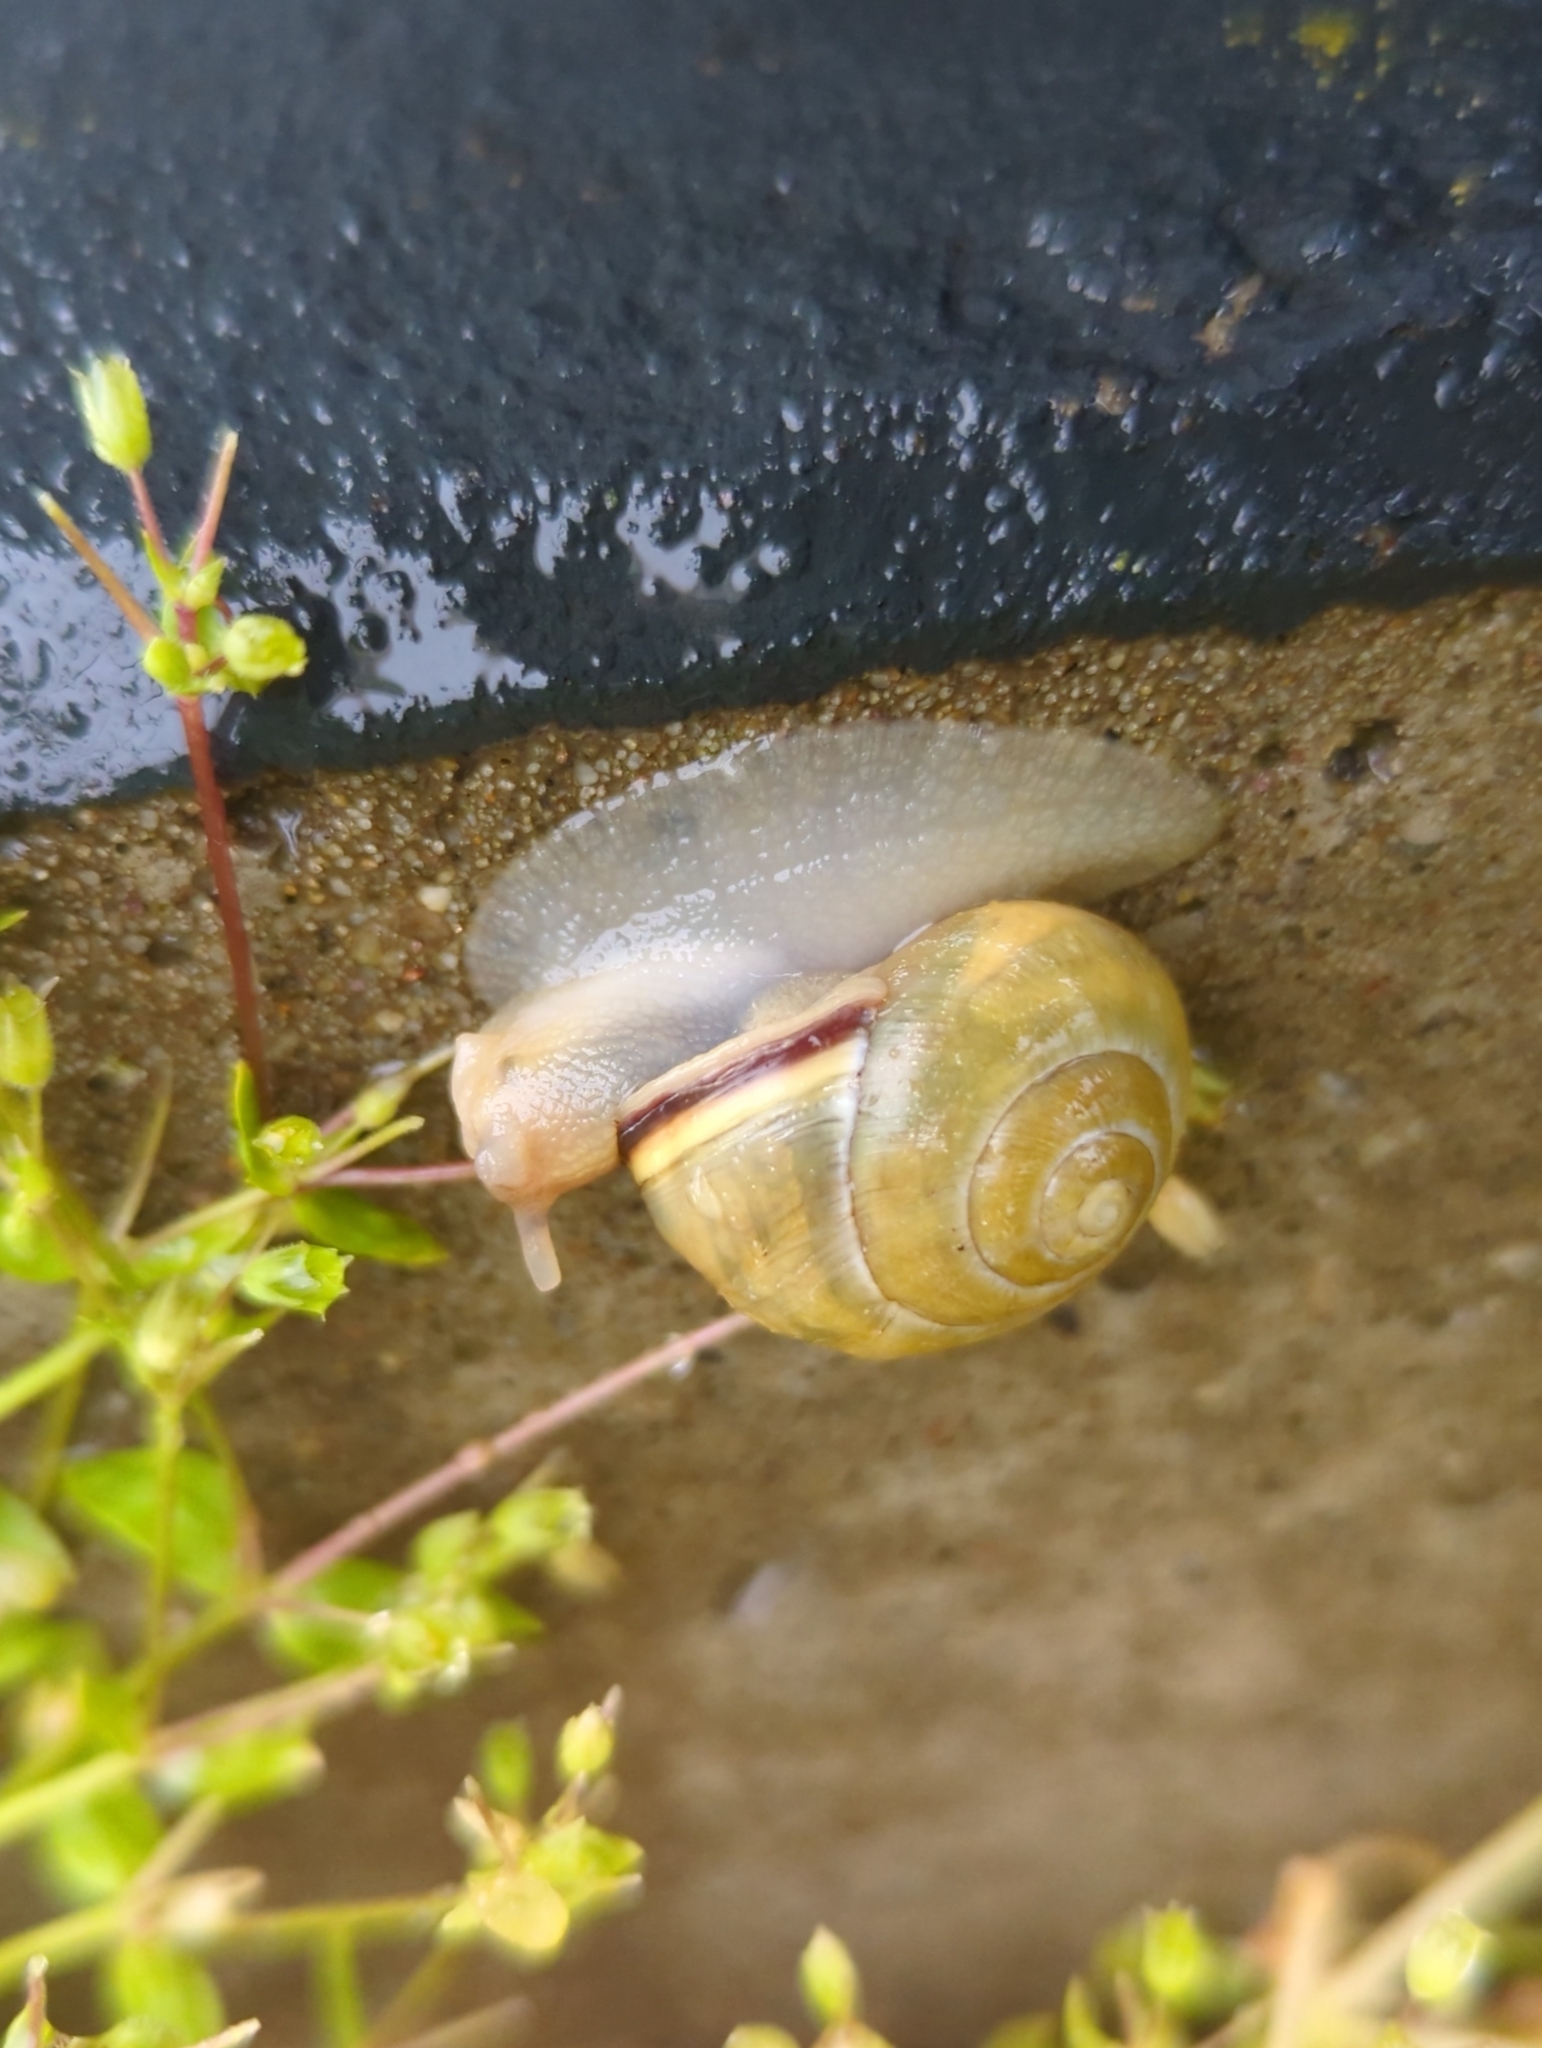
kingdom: Animalia
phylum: Mollusca
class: Gastropoda
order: Stylommatophora
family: Helicidae
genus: Cepaea
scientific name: Cepaea nemoralis
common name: Grovesnail
